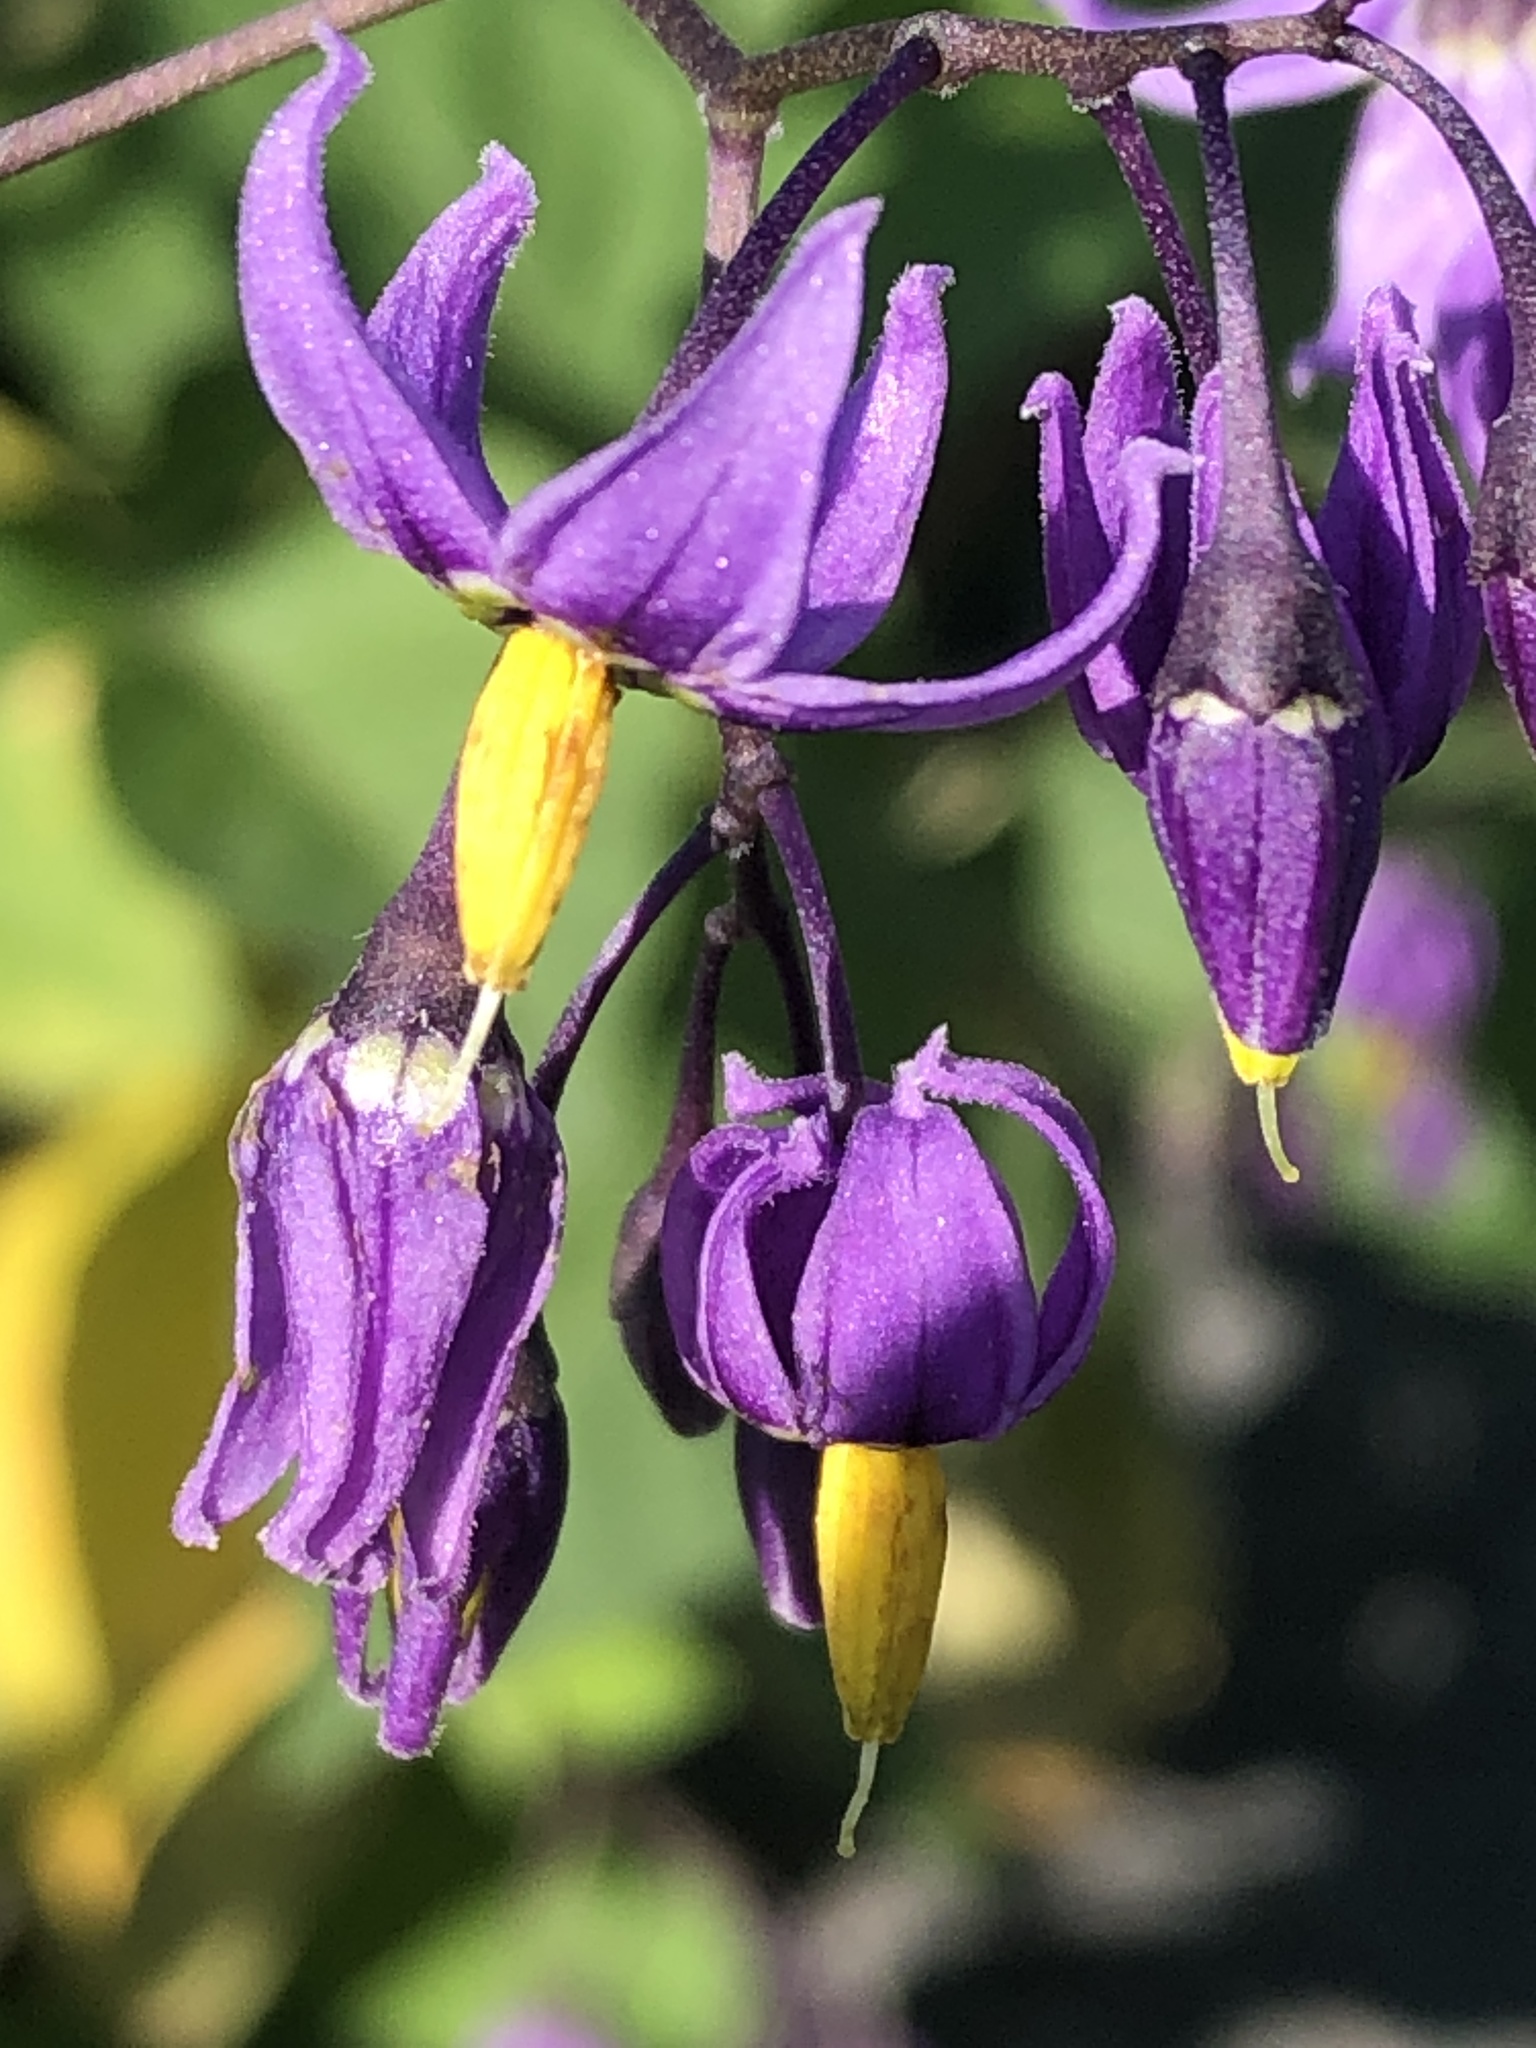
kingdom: Plantae
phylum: Tracheophyta
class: Magnoliopsida
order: Solanales
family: Solanaceae
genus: Solanum
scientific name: Solanum dulcamara
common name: Climbing nightshade
